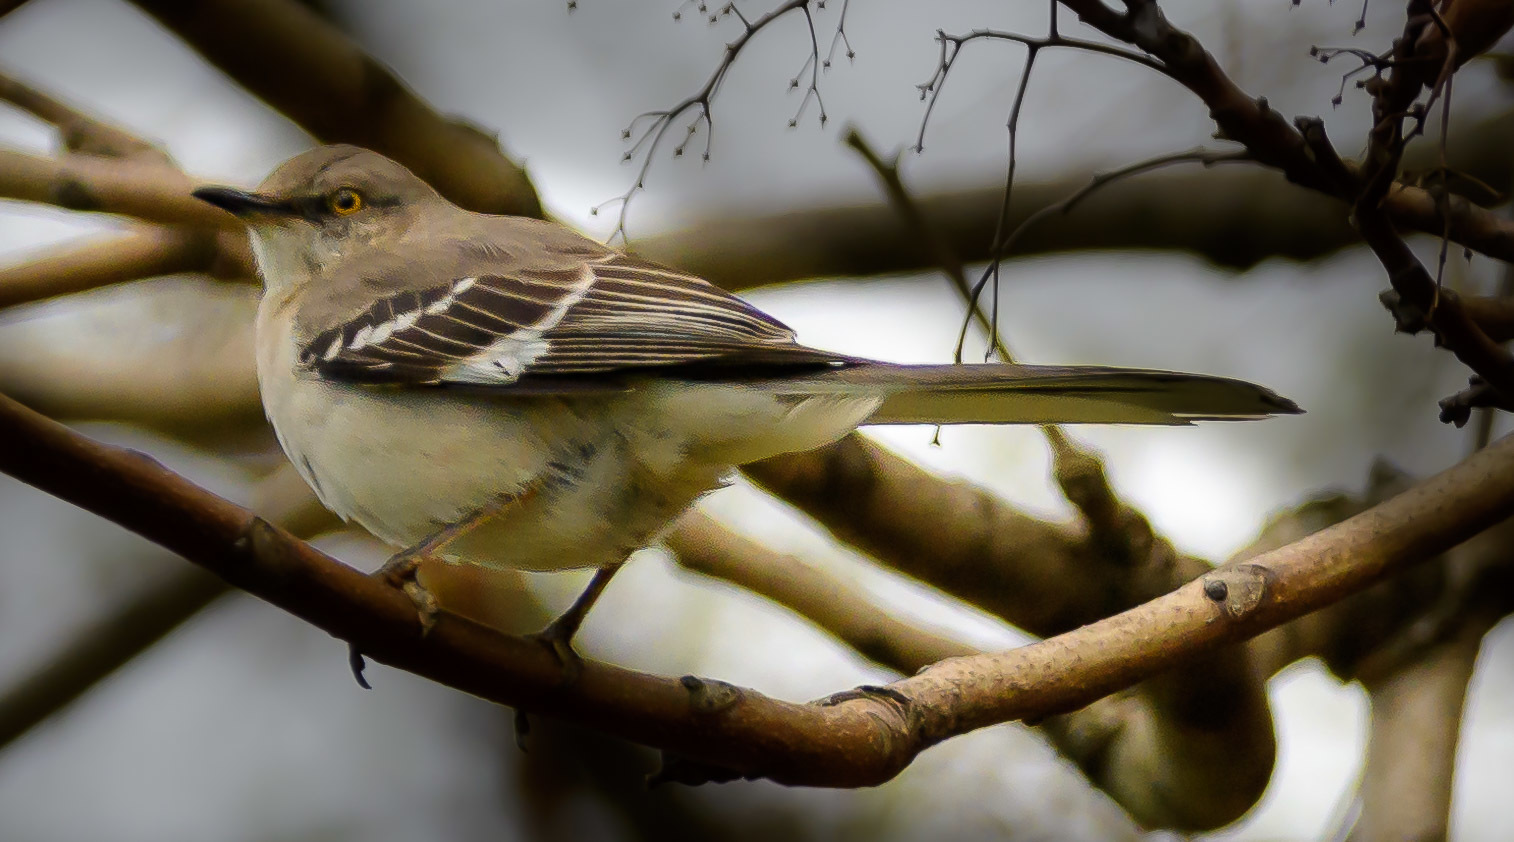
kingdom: Animalia
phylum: Chordata
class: Aves
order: Passeriformes
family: Mimidae
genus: Mimus
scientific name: Mimus polyglottos
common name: Northern mockingbird
